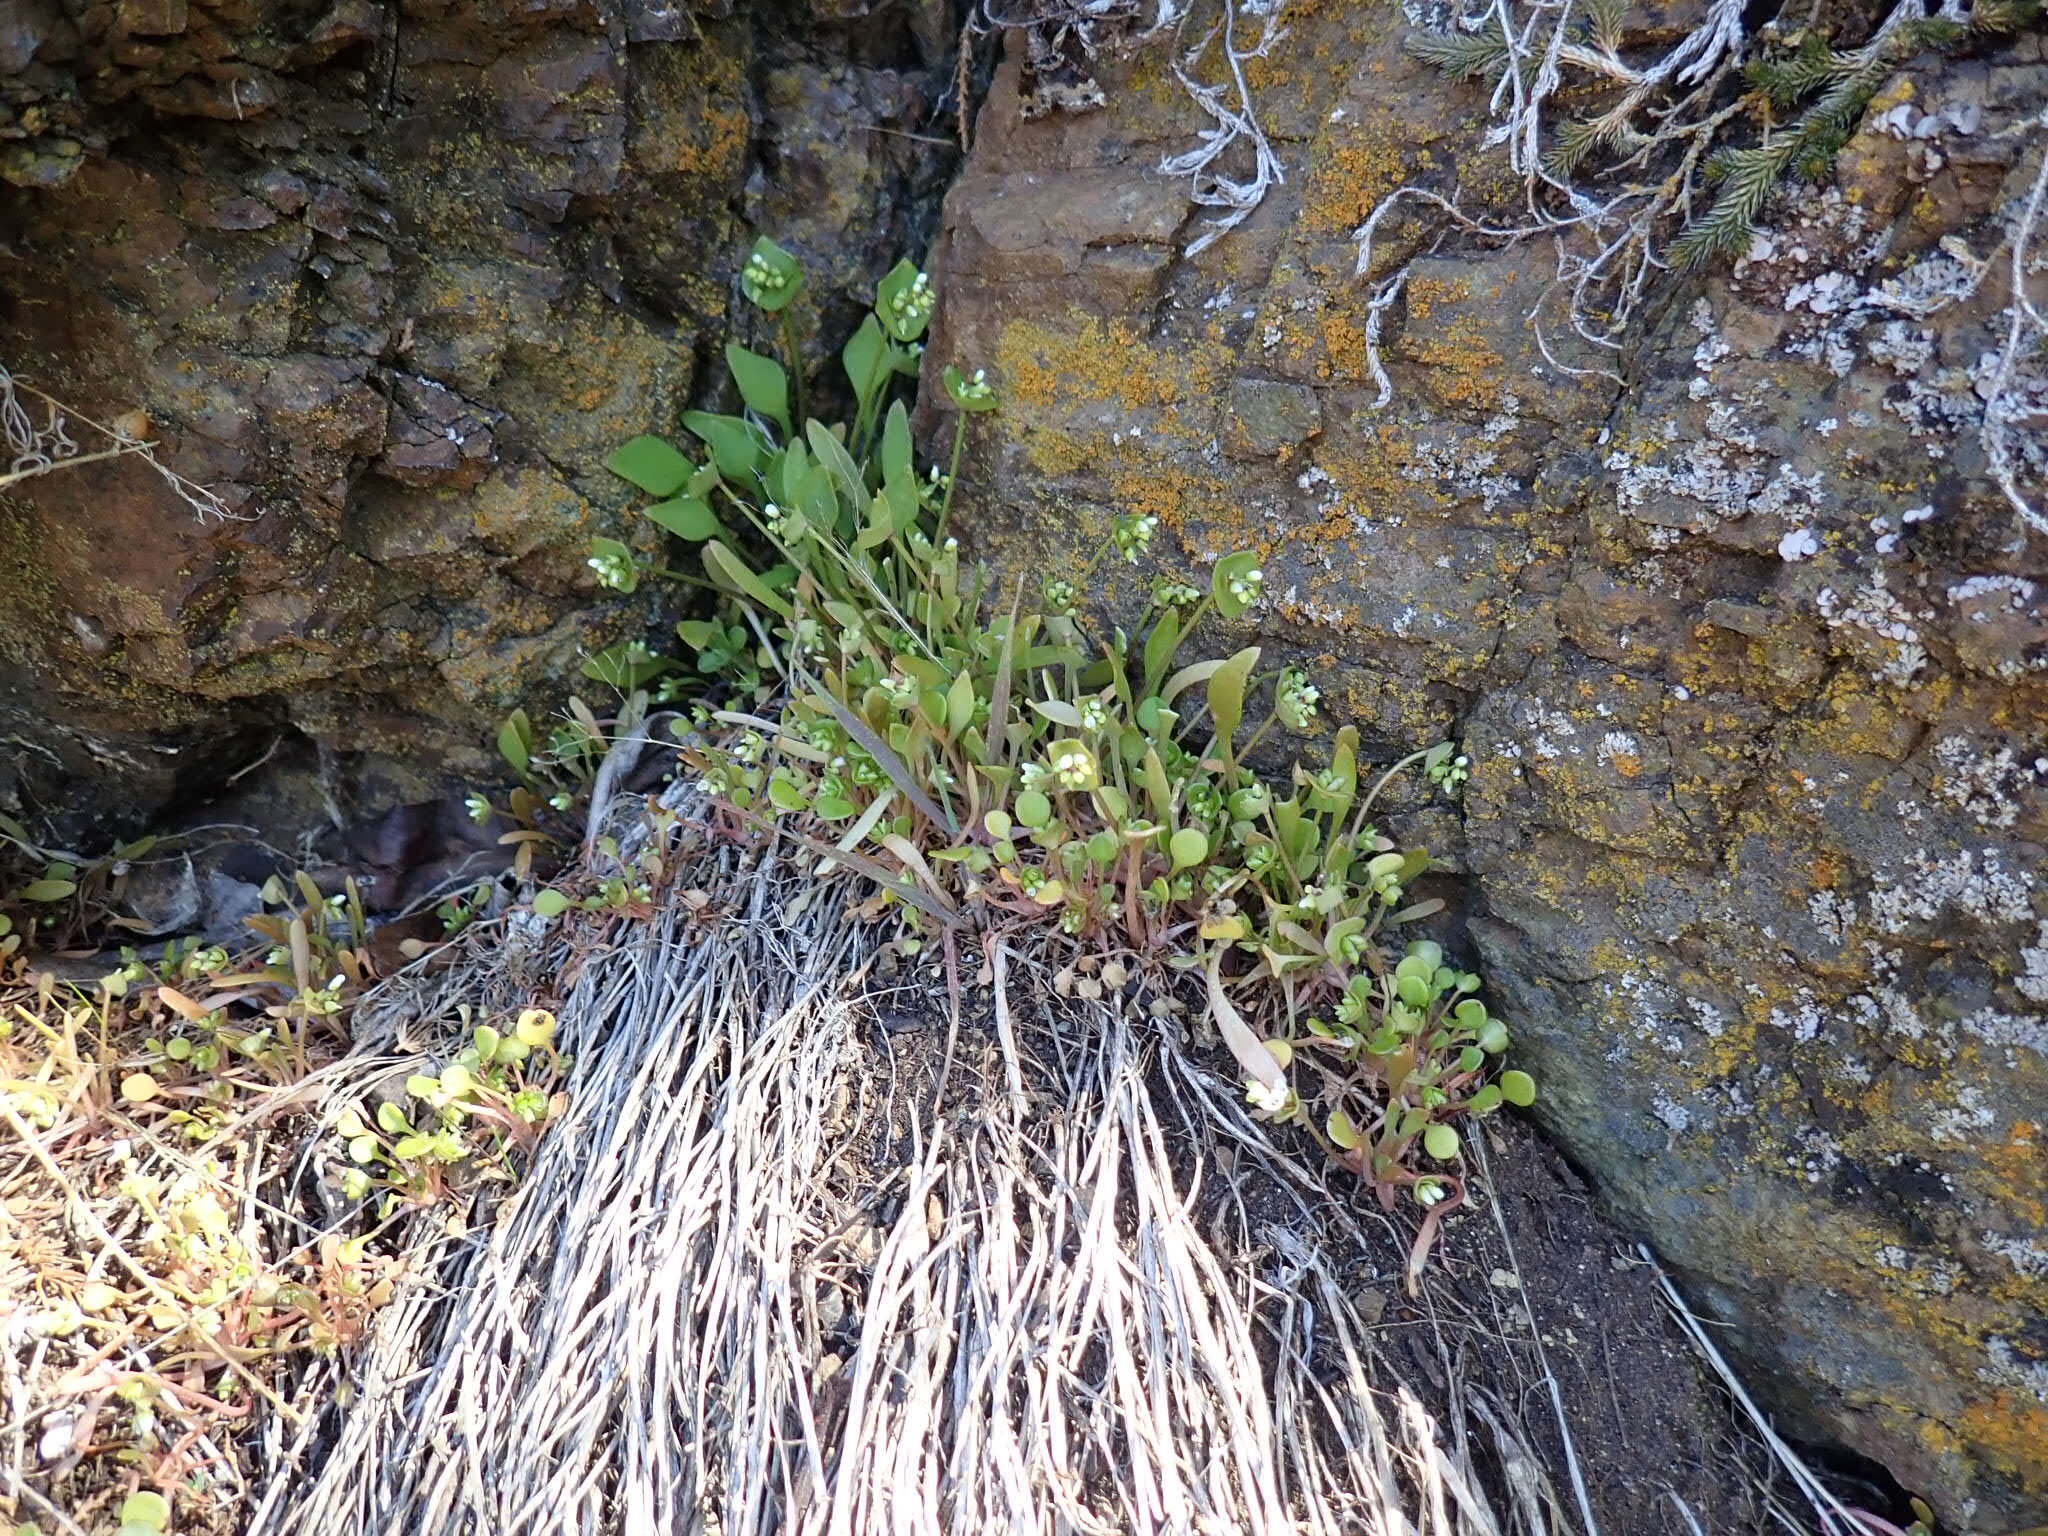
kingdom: Plantae
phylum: Tracheophyta
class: Magnoliopsida
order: Caryophyllales
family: Montiaceae
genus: Claytonia
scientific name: Claytonia rubra
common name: Erubescent miner's-lettuce
